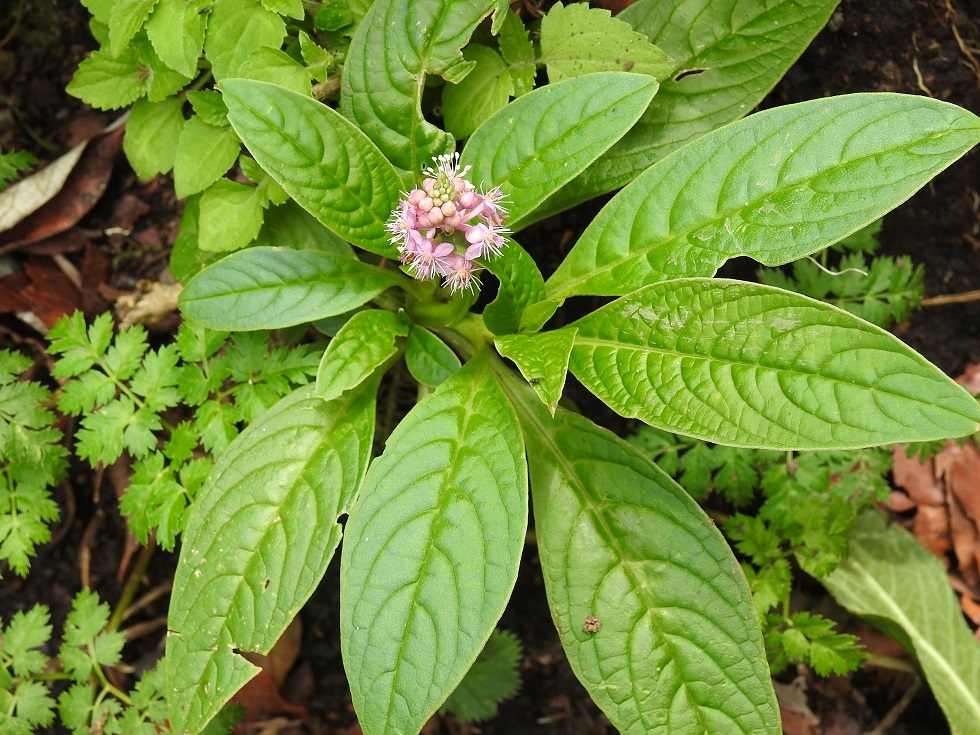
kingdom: Plantae
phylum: Tracheophyta
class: Magnoliopsida
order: Caryophyllales
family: Phytolaccaceae
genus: Phytolacca
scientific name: Phytolacca icosandra
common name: Button pokeweed
